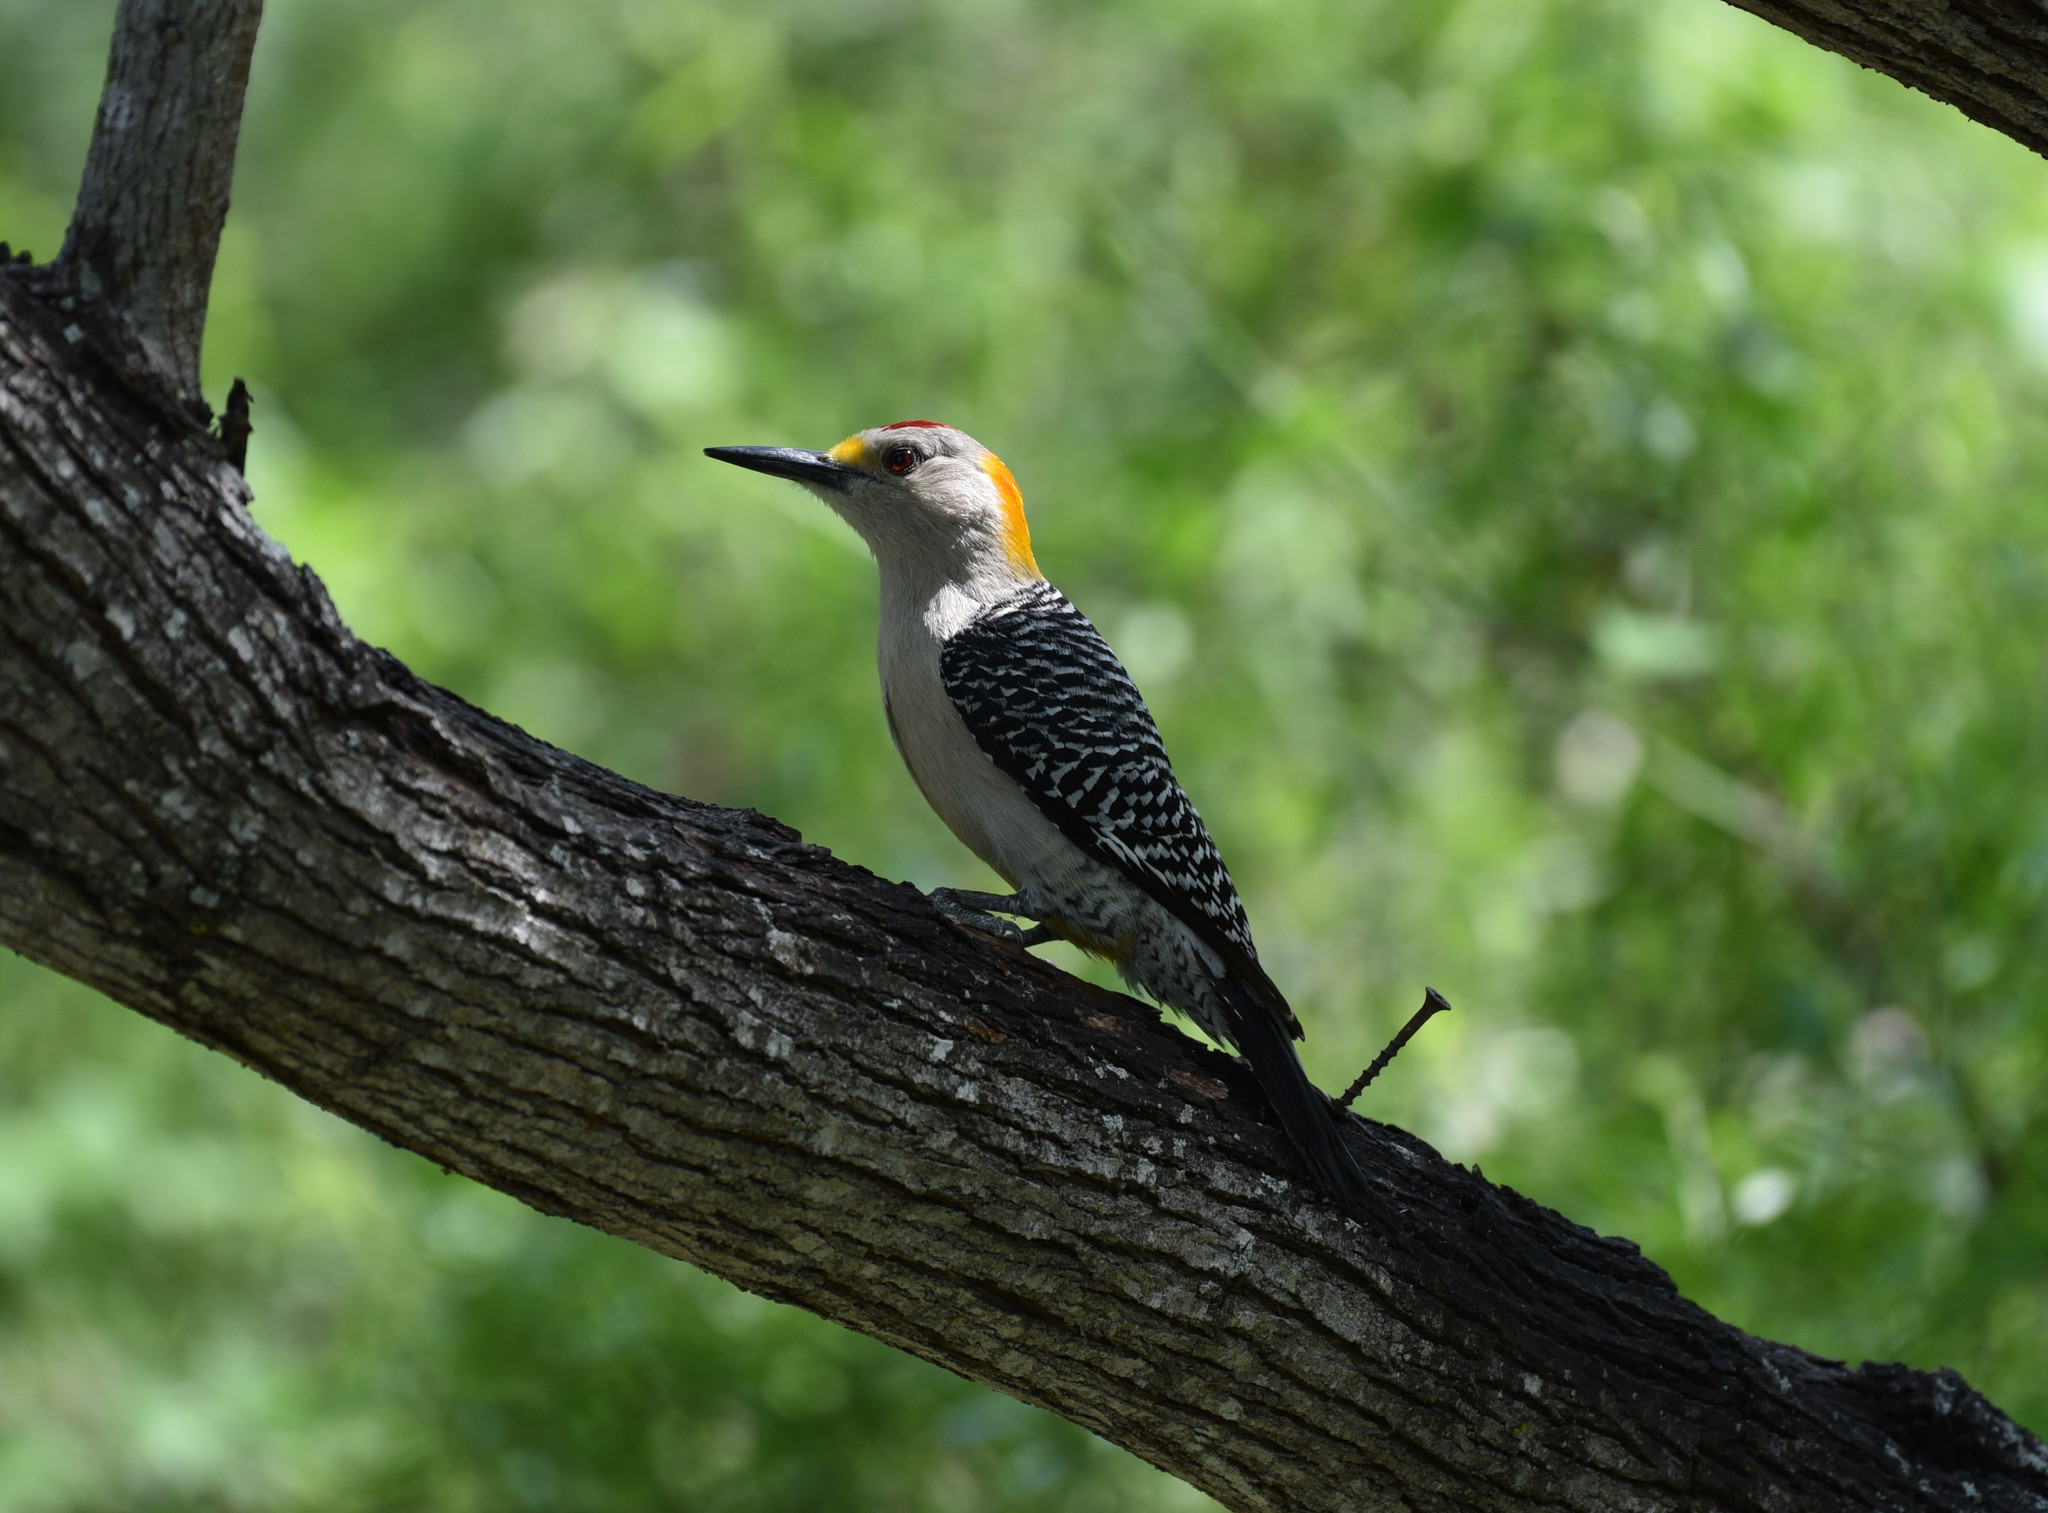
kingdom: Animalia
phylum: Chordata
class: Aves
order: Piciformes
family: Picidae
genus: Melanerpes
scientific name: Melanerpes aurifrons
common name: Golden-fronted woodpecker
